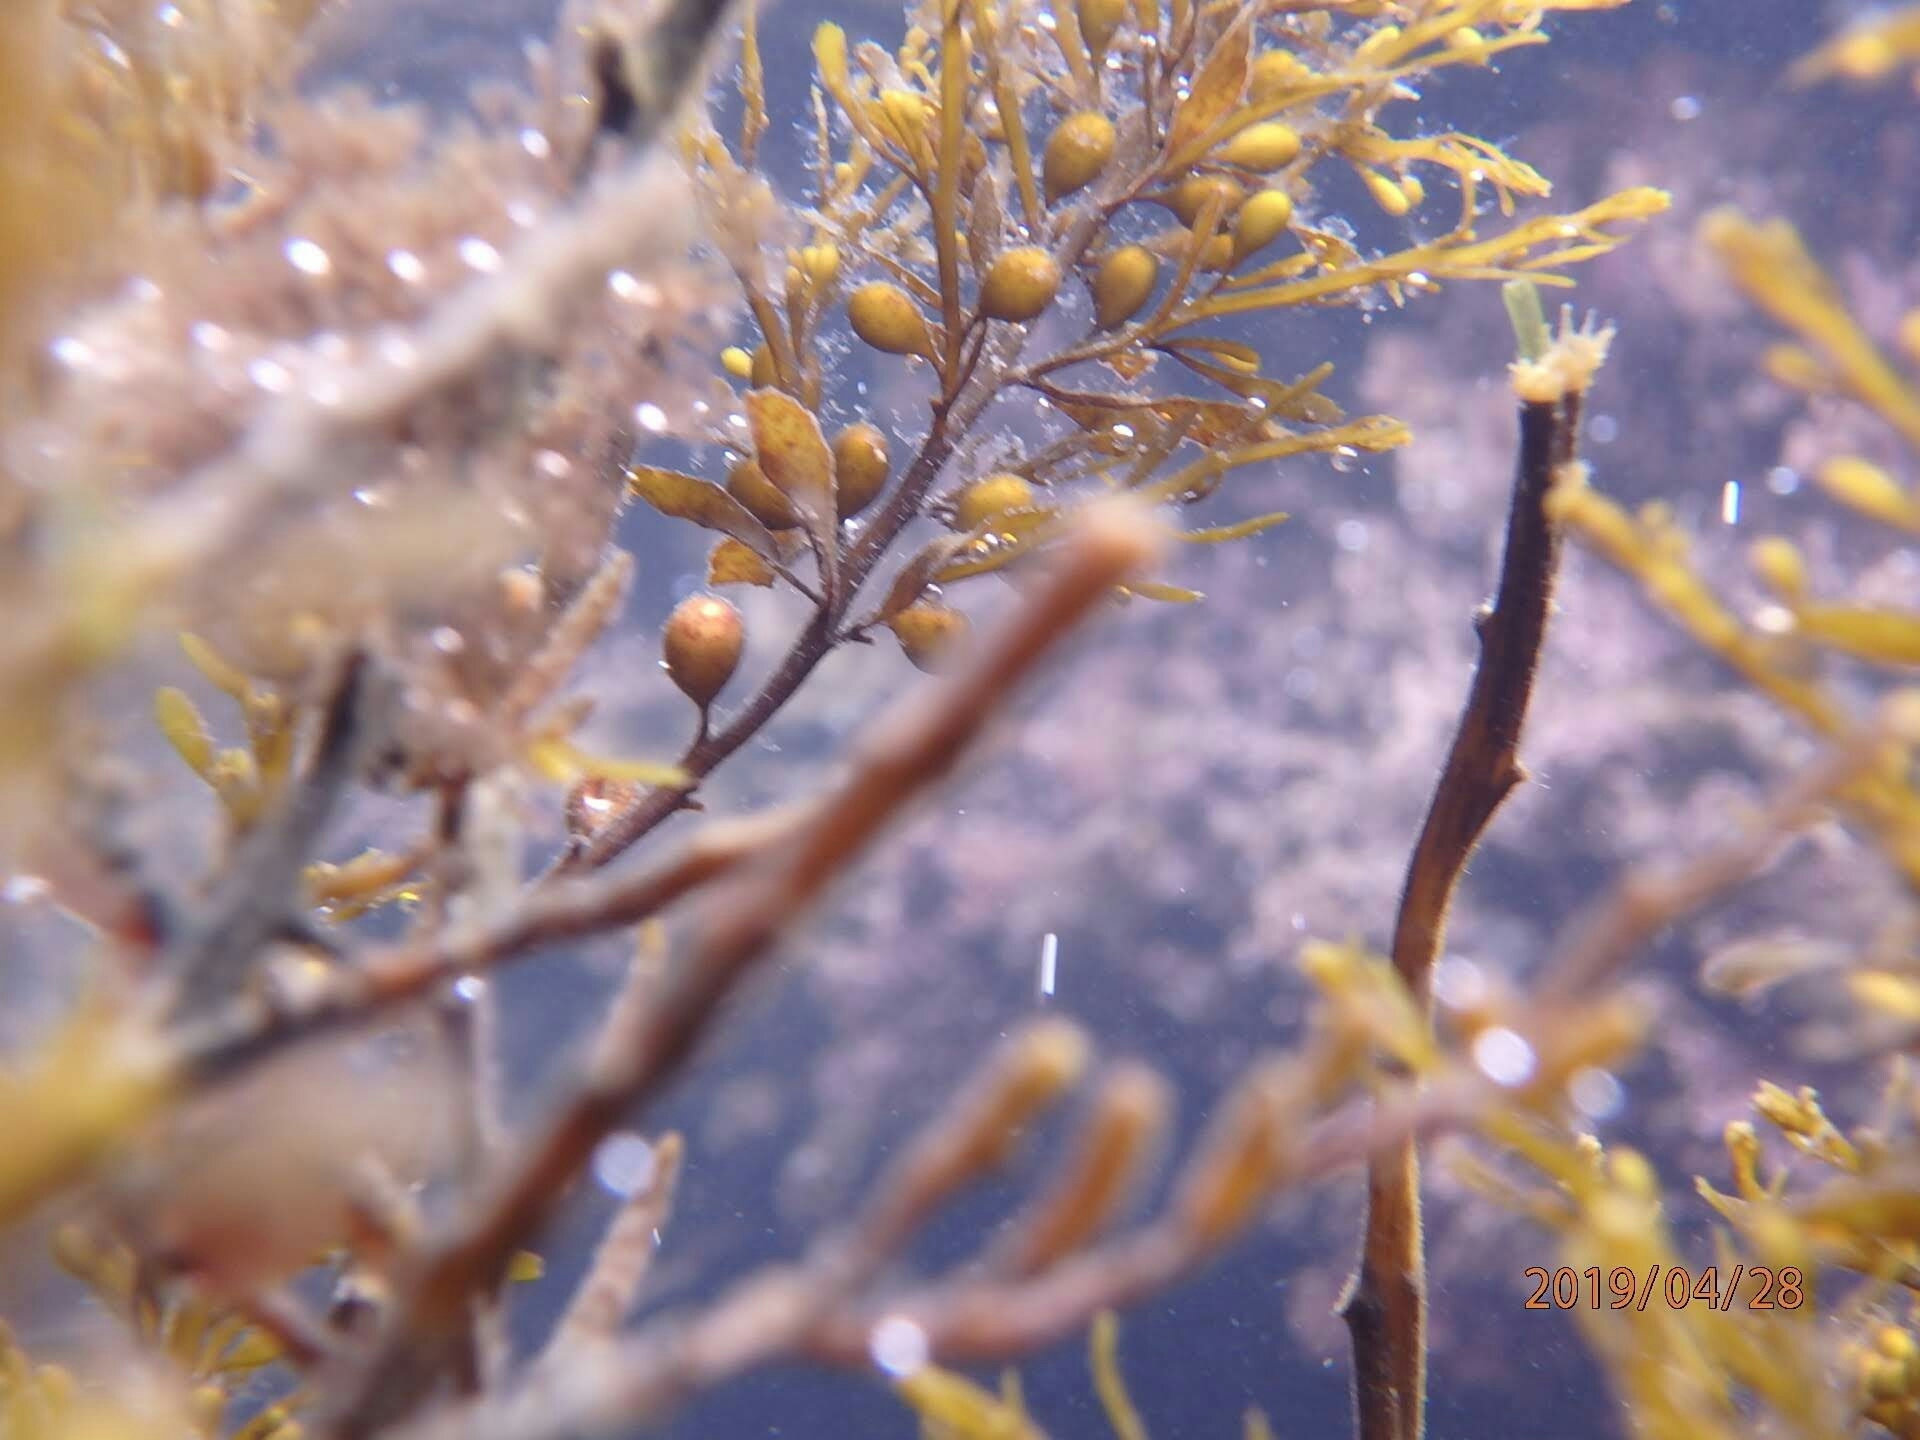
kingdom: Chromista
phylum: Ochrophyta
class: Phaeophyceae
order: Fucales
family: Sargassaceae
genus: Sargassum
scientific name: Sargassum muticum
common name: Japweed
